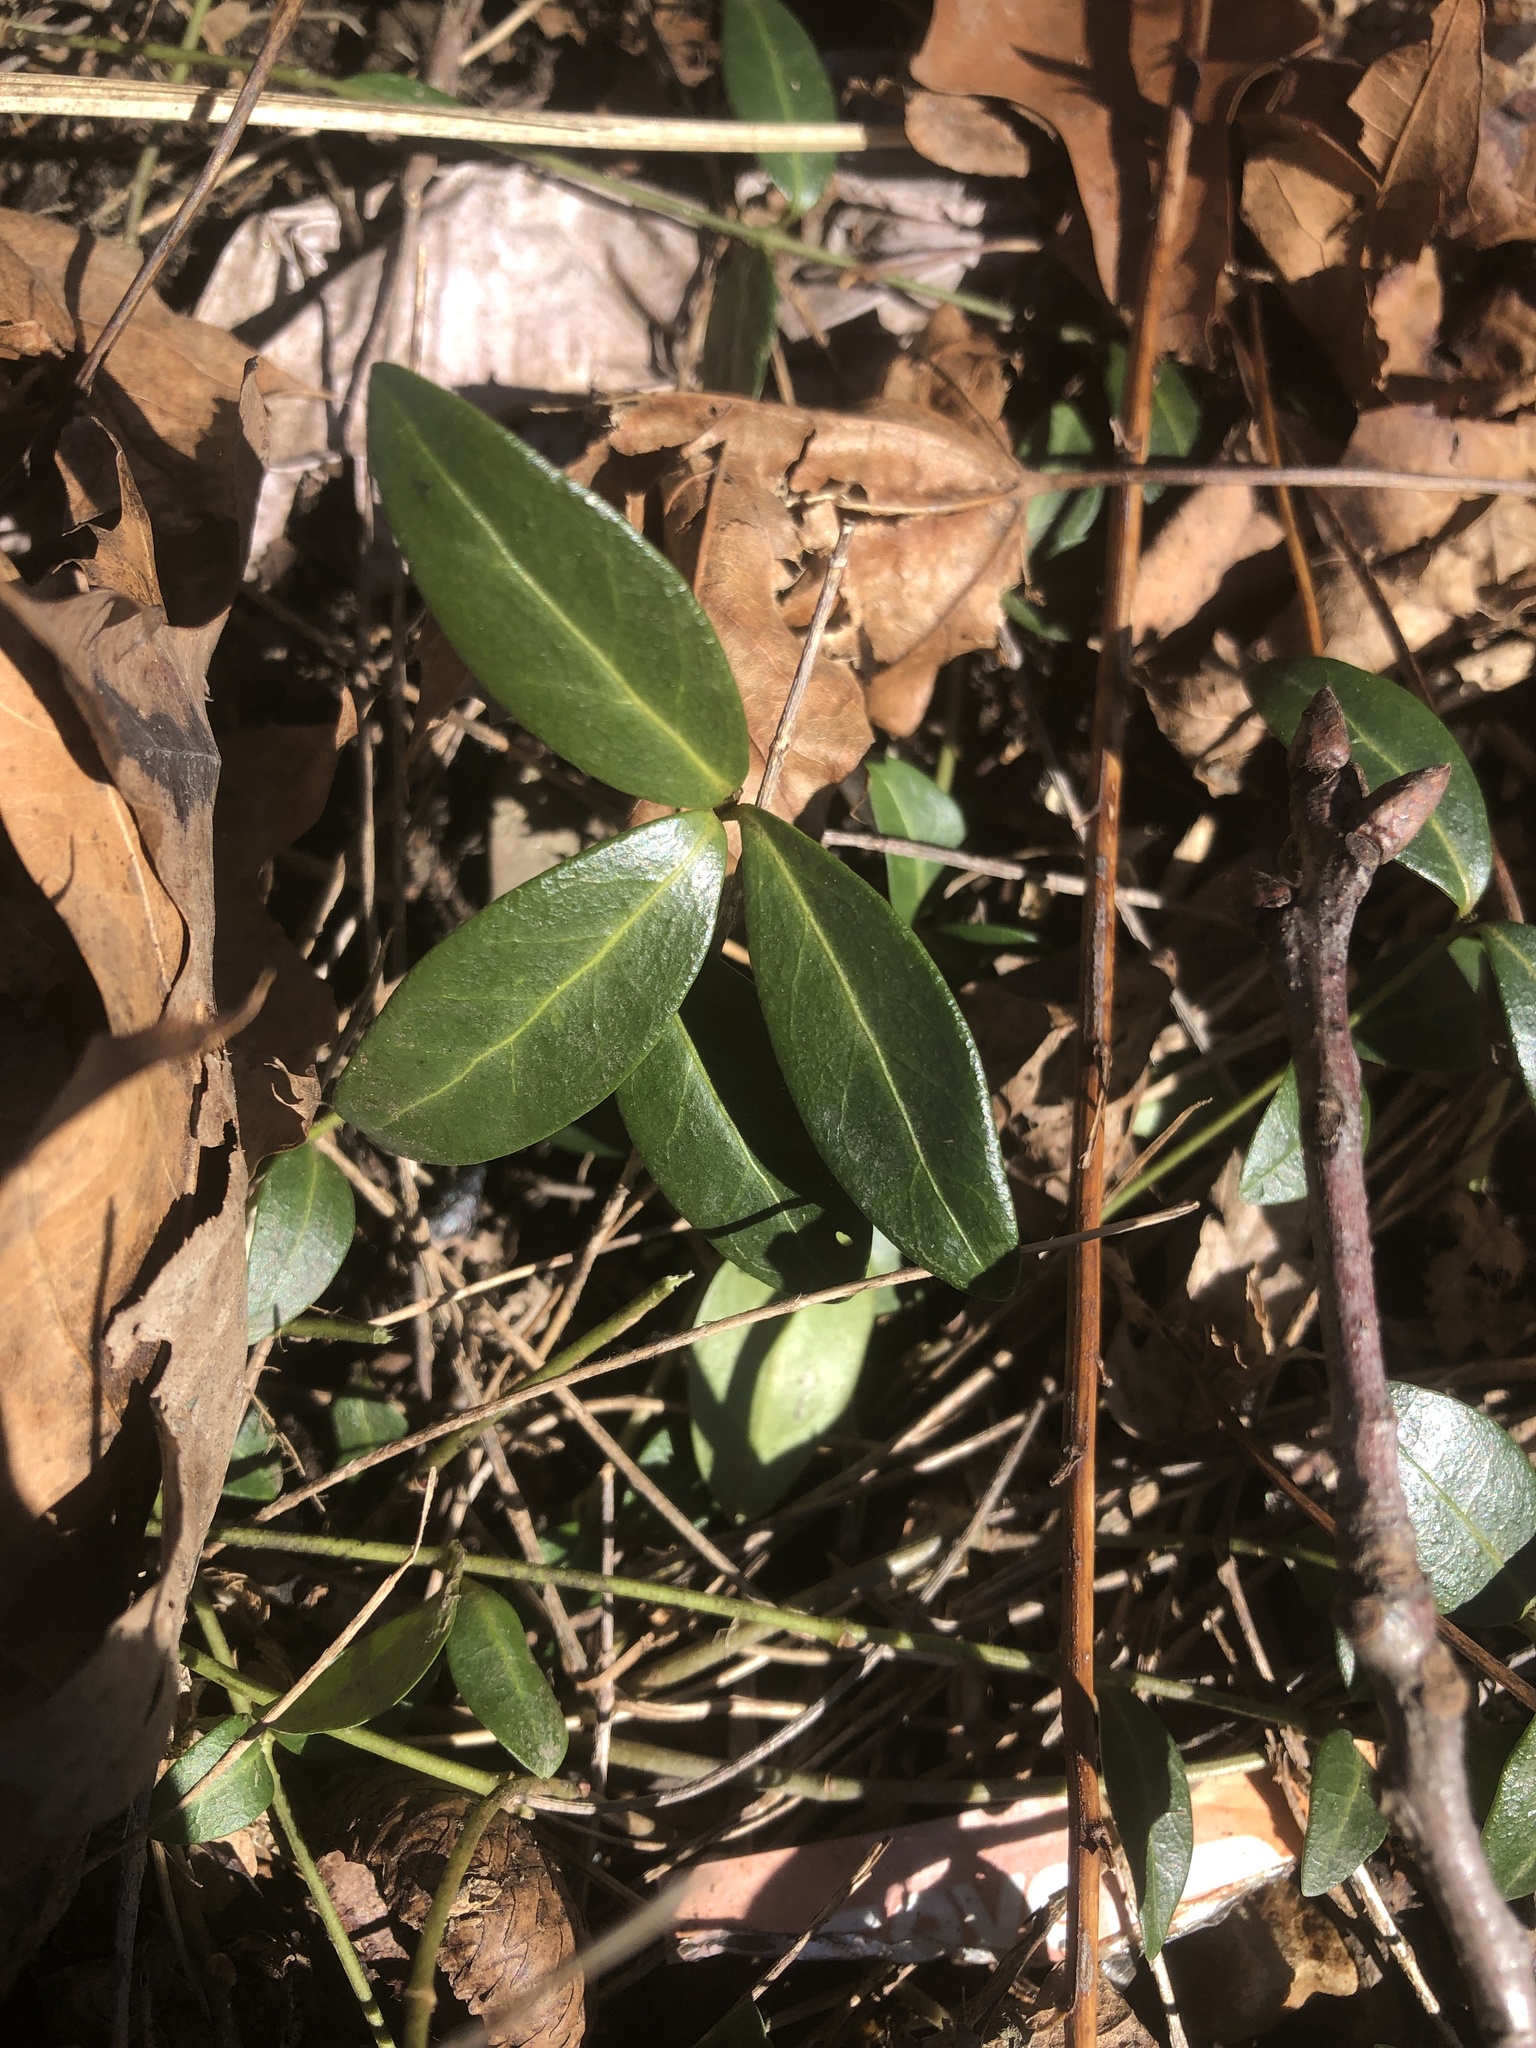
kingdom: Plantae
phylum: Tracheophyta
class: Magnoliopsida
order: Gentianales
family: Apocynaceae
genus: Vinca
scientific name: Vinca minor
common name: Lesser periwinkle
